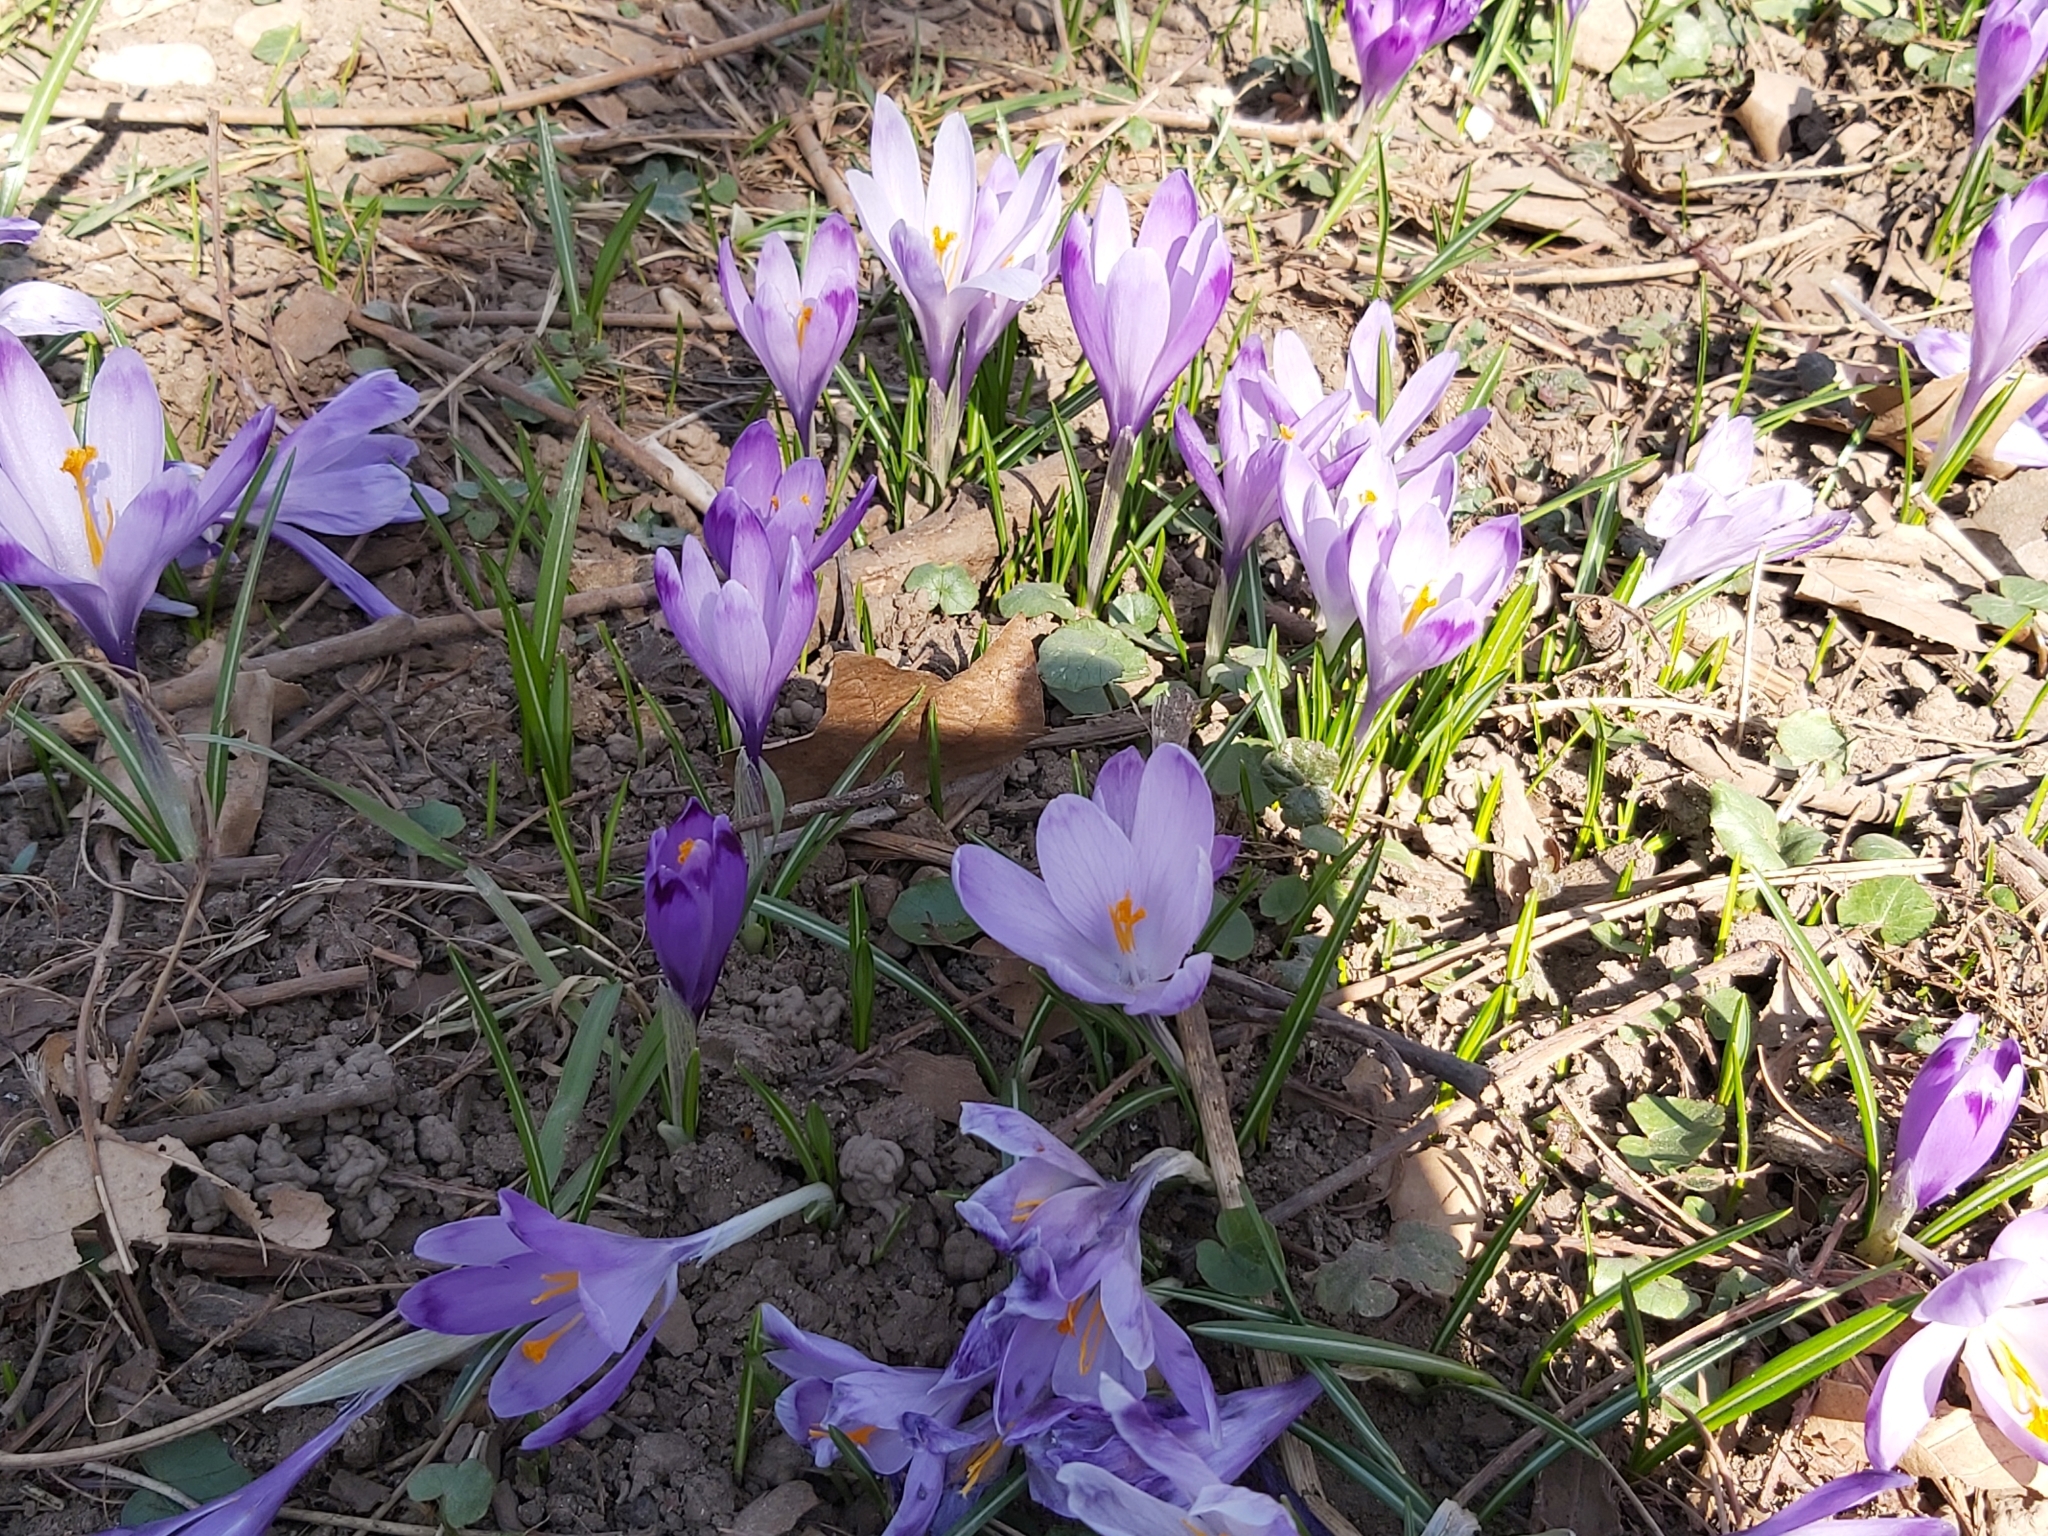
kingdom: Plantae
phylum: Tracheophyta
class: Liliopsida
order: Asparagales
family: Iridaceae
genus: Crocus
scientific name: Crocus heuffelianus
